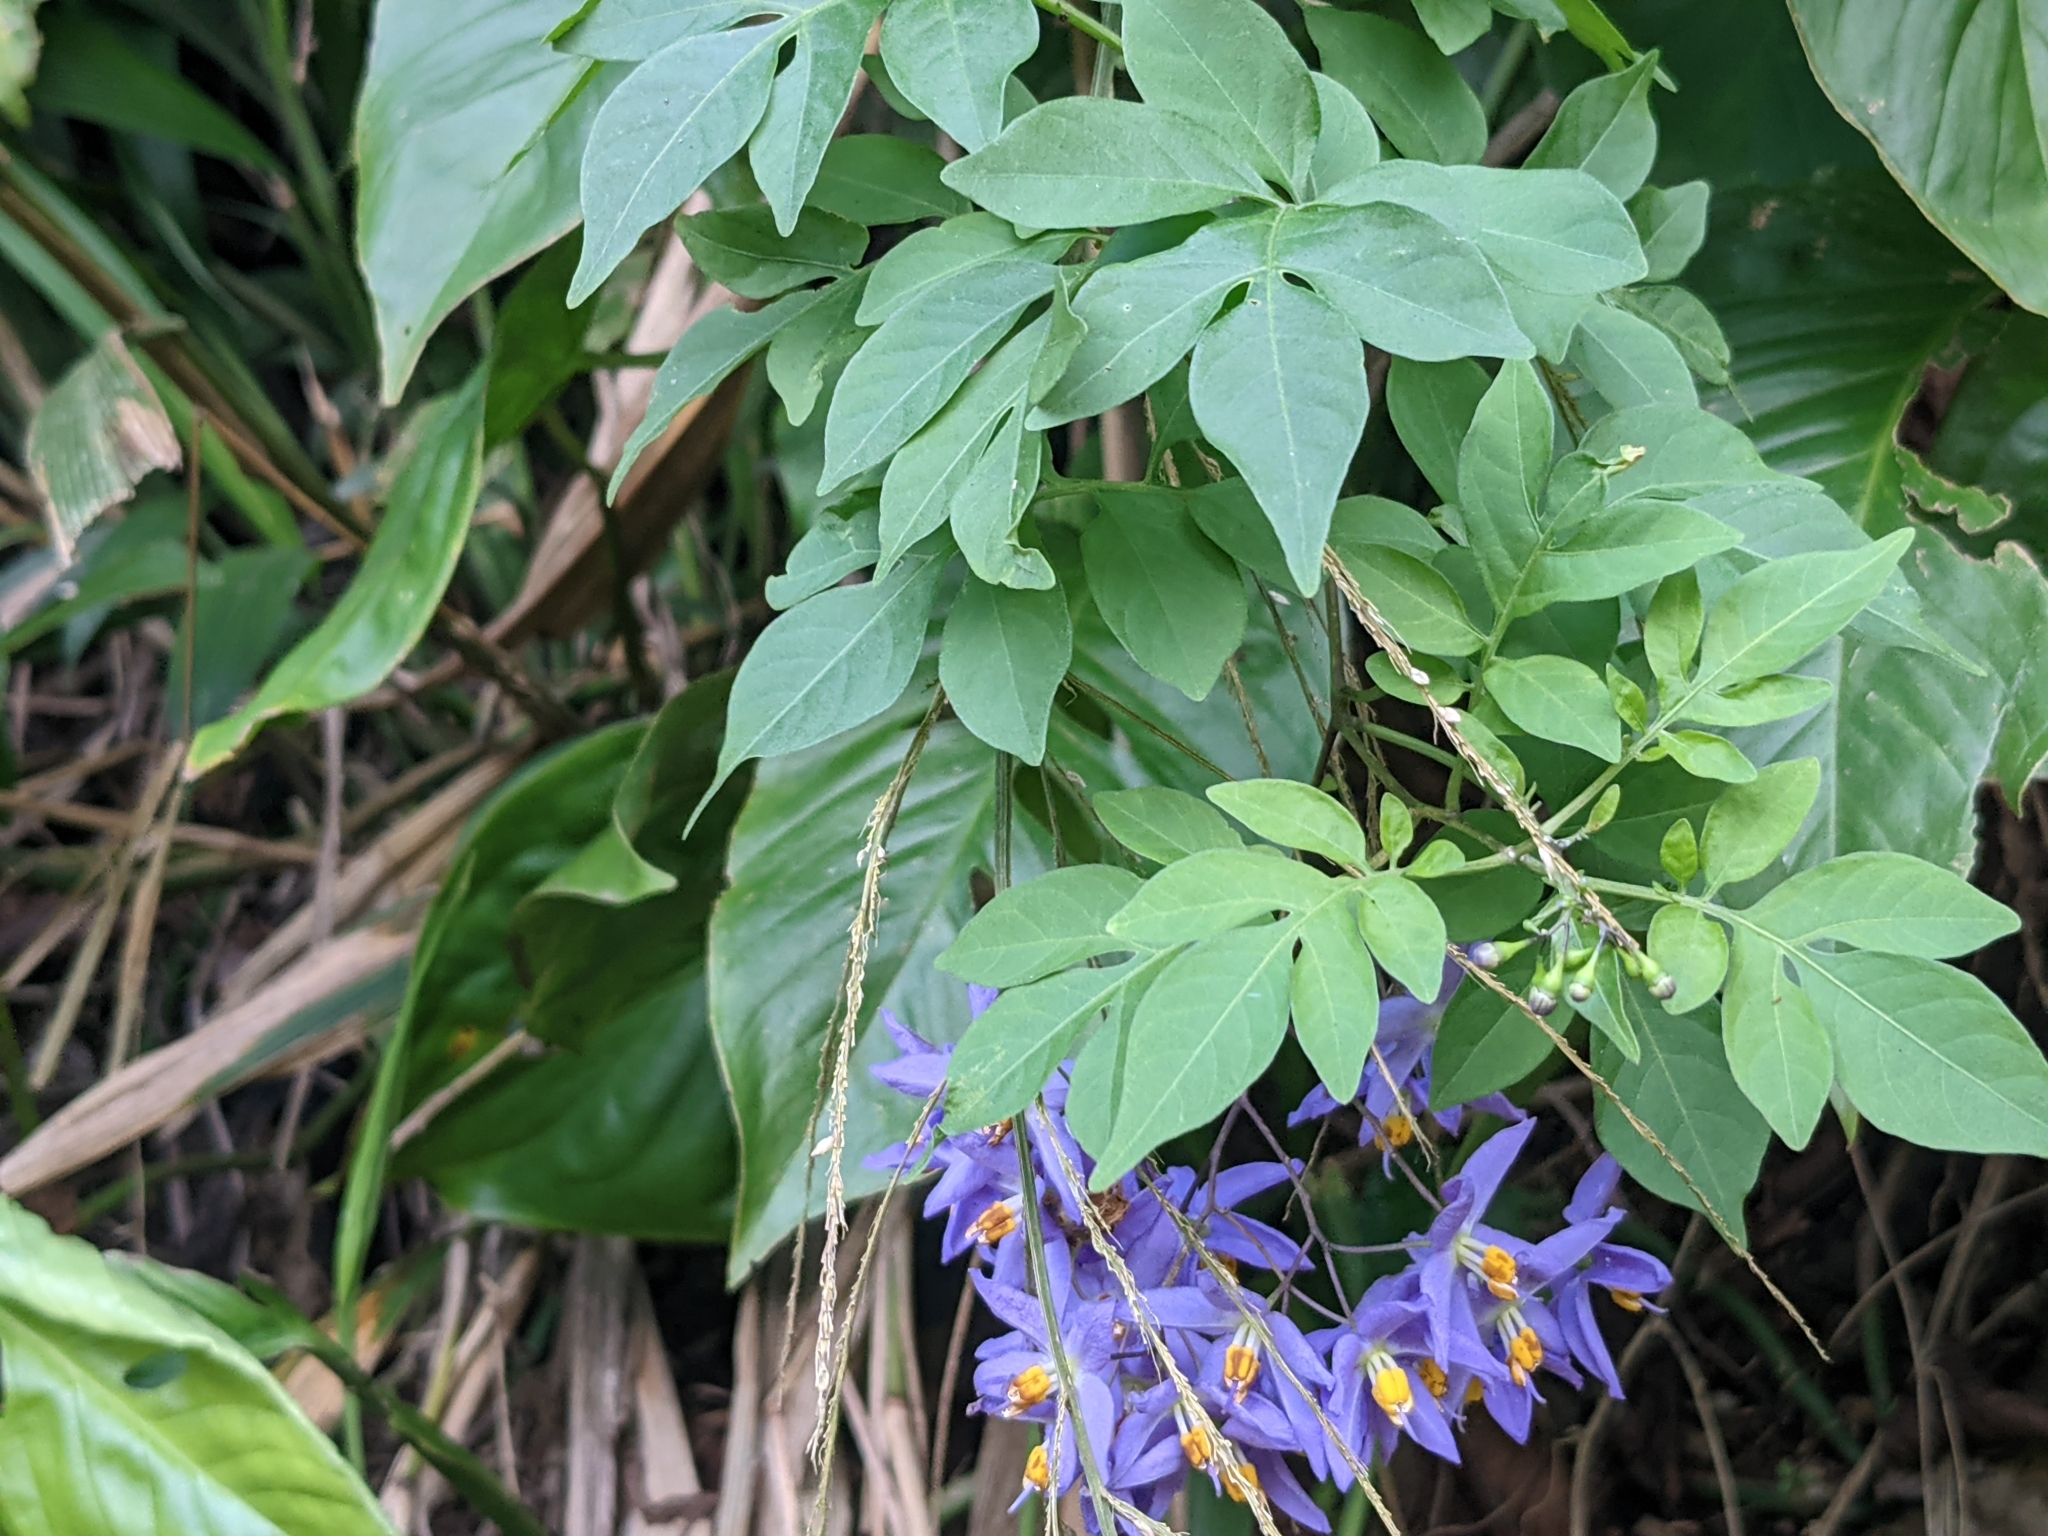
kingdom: Plantae
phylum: Tracheophyta
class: Magnoliopsida
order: Solanales
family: Solanaceae
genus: Solanum
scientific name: Solanum seaforthianum
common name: Brazilian nightshade
